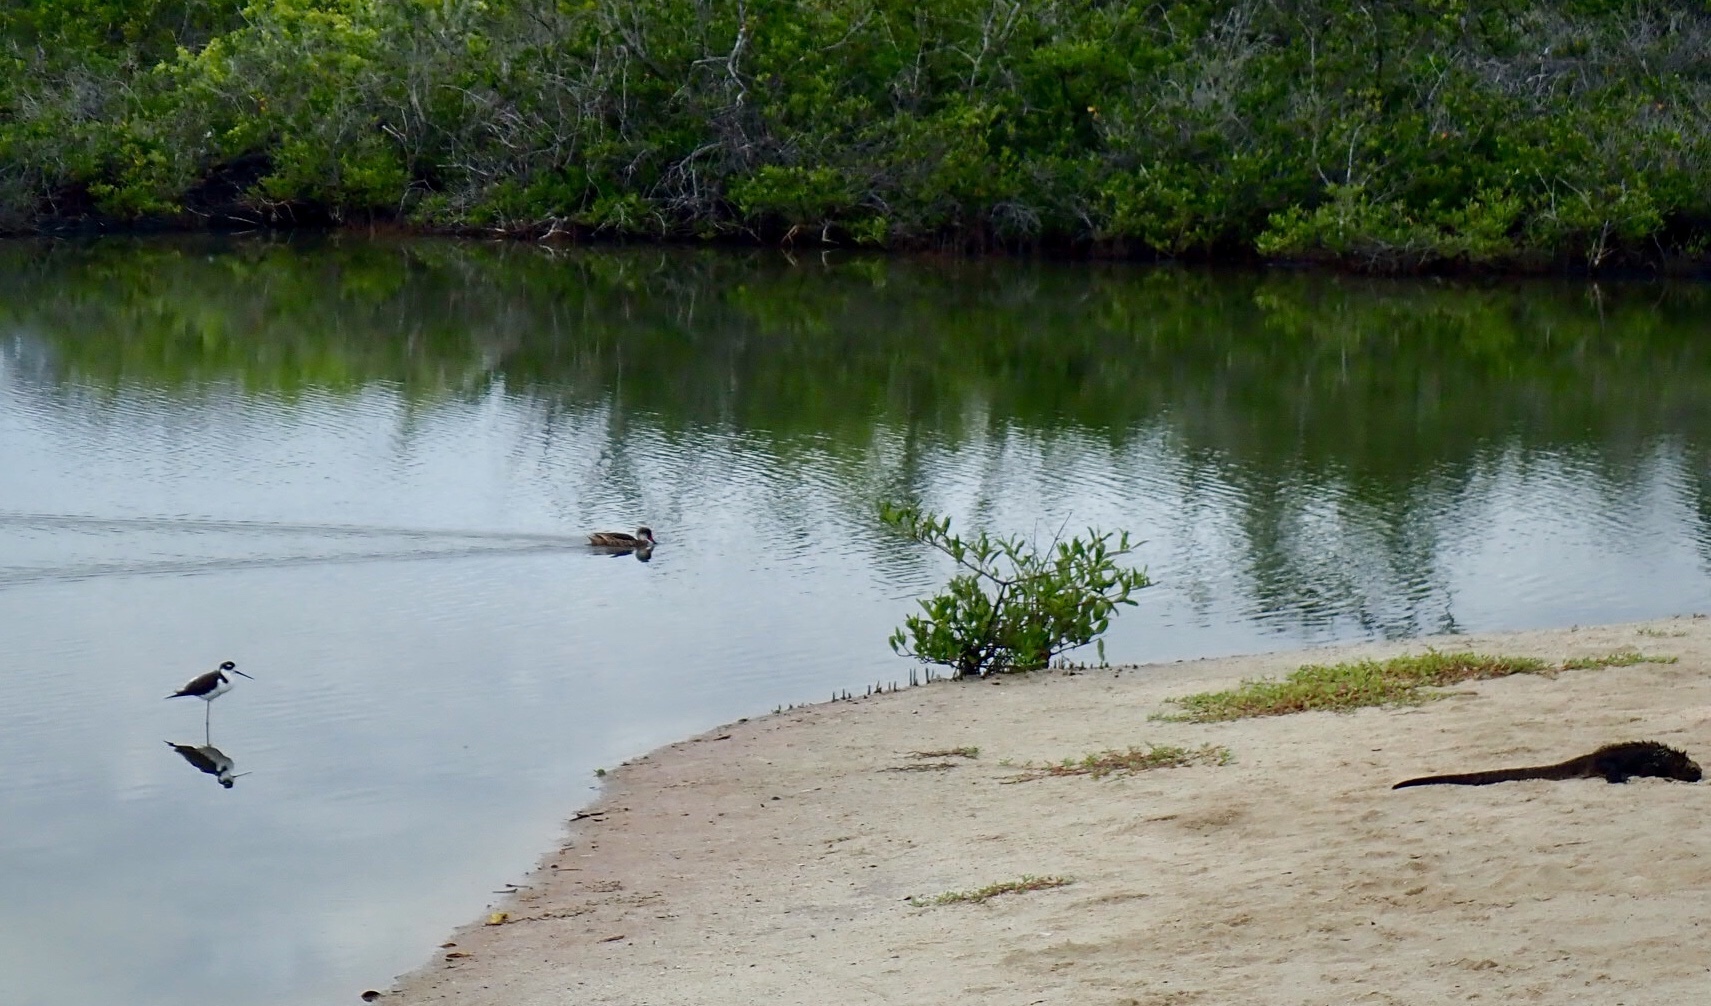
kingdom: Animalia
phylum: Chordata
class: Aves
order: Charadriiformes
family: Recurvirostridae
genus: Himantopus
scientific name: Himantopus mexicanus
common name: Black-necked stilt
